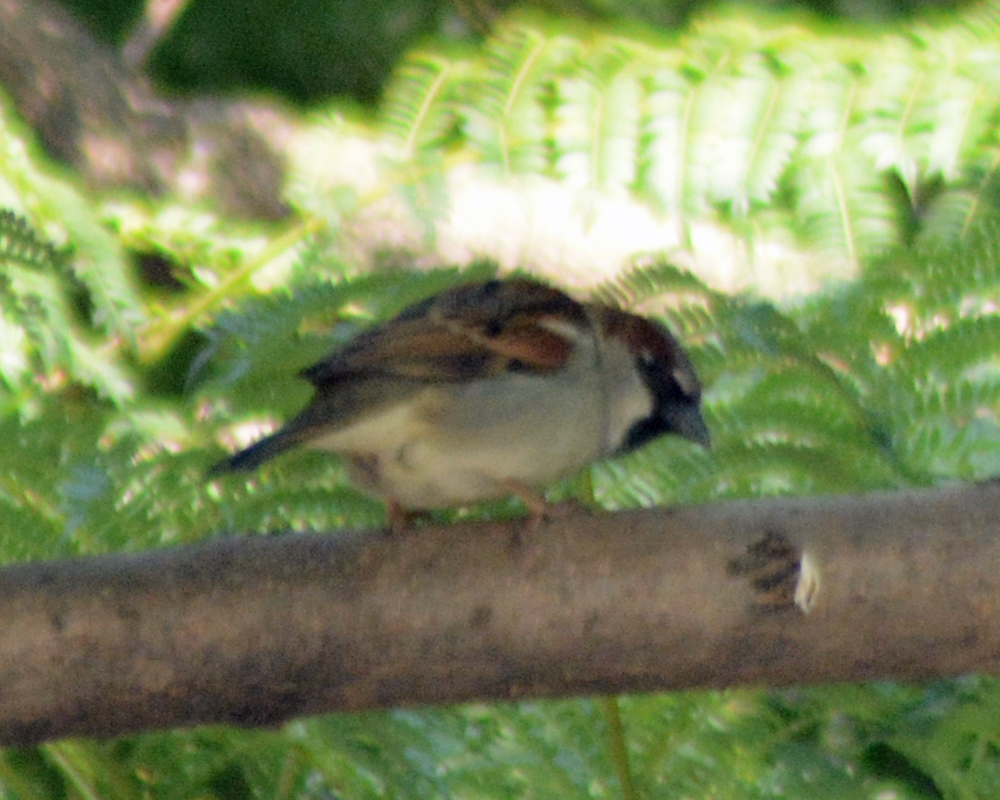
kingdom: Animalia
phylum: Chordata
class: Aves
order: Passeriformes
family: Passeridae
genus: Passer
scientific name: Passer domesticus
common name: House sparrow
